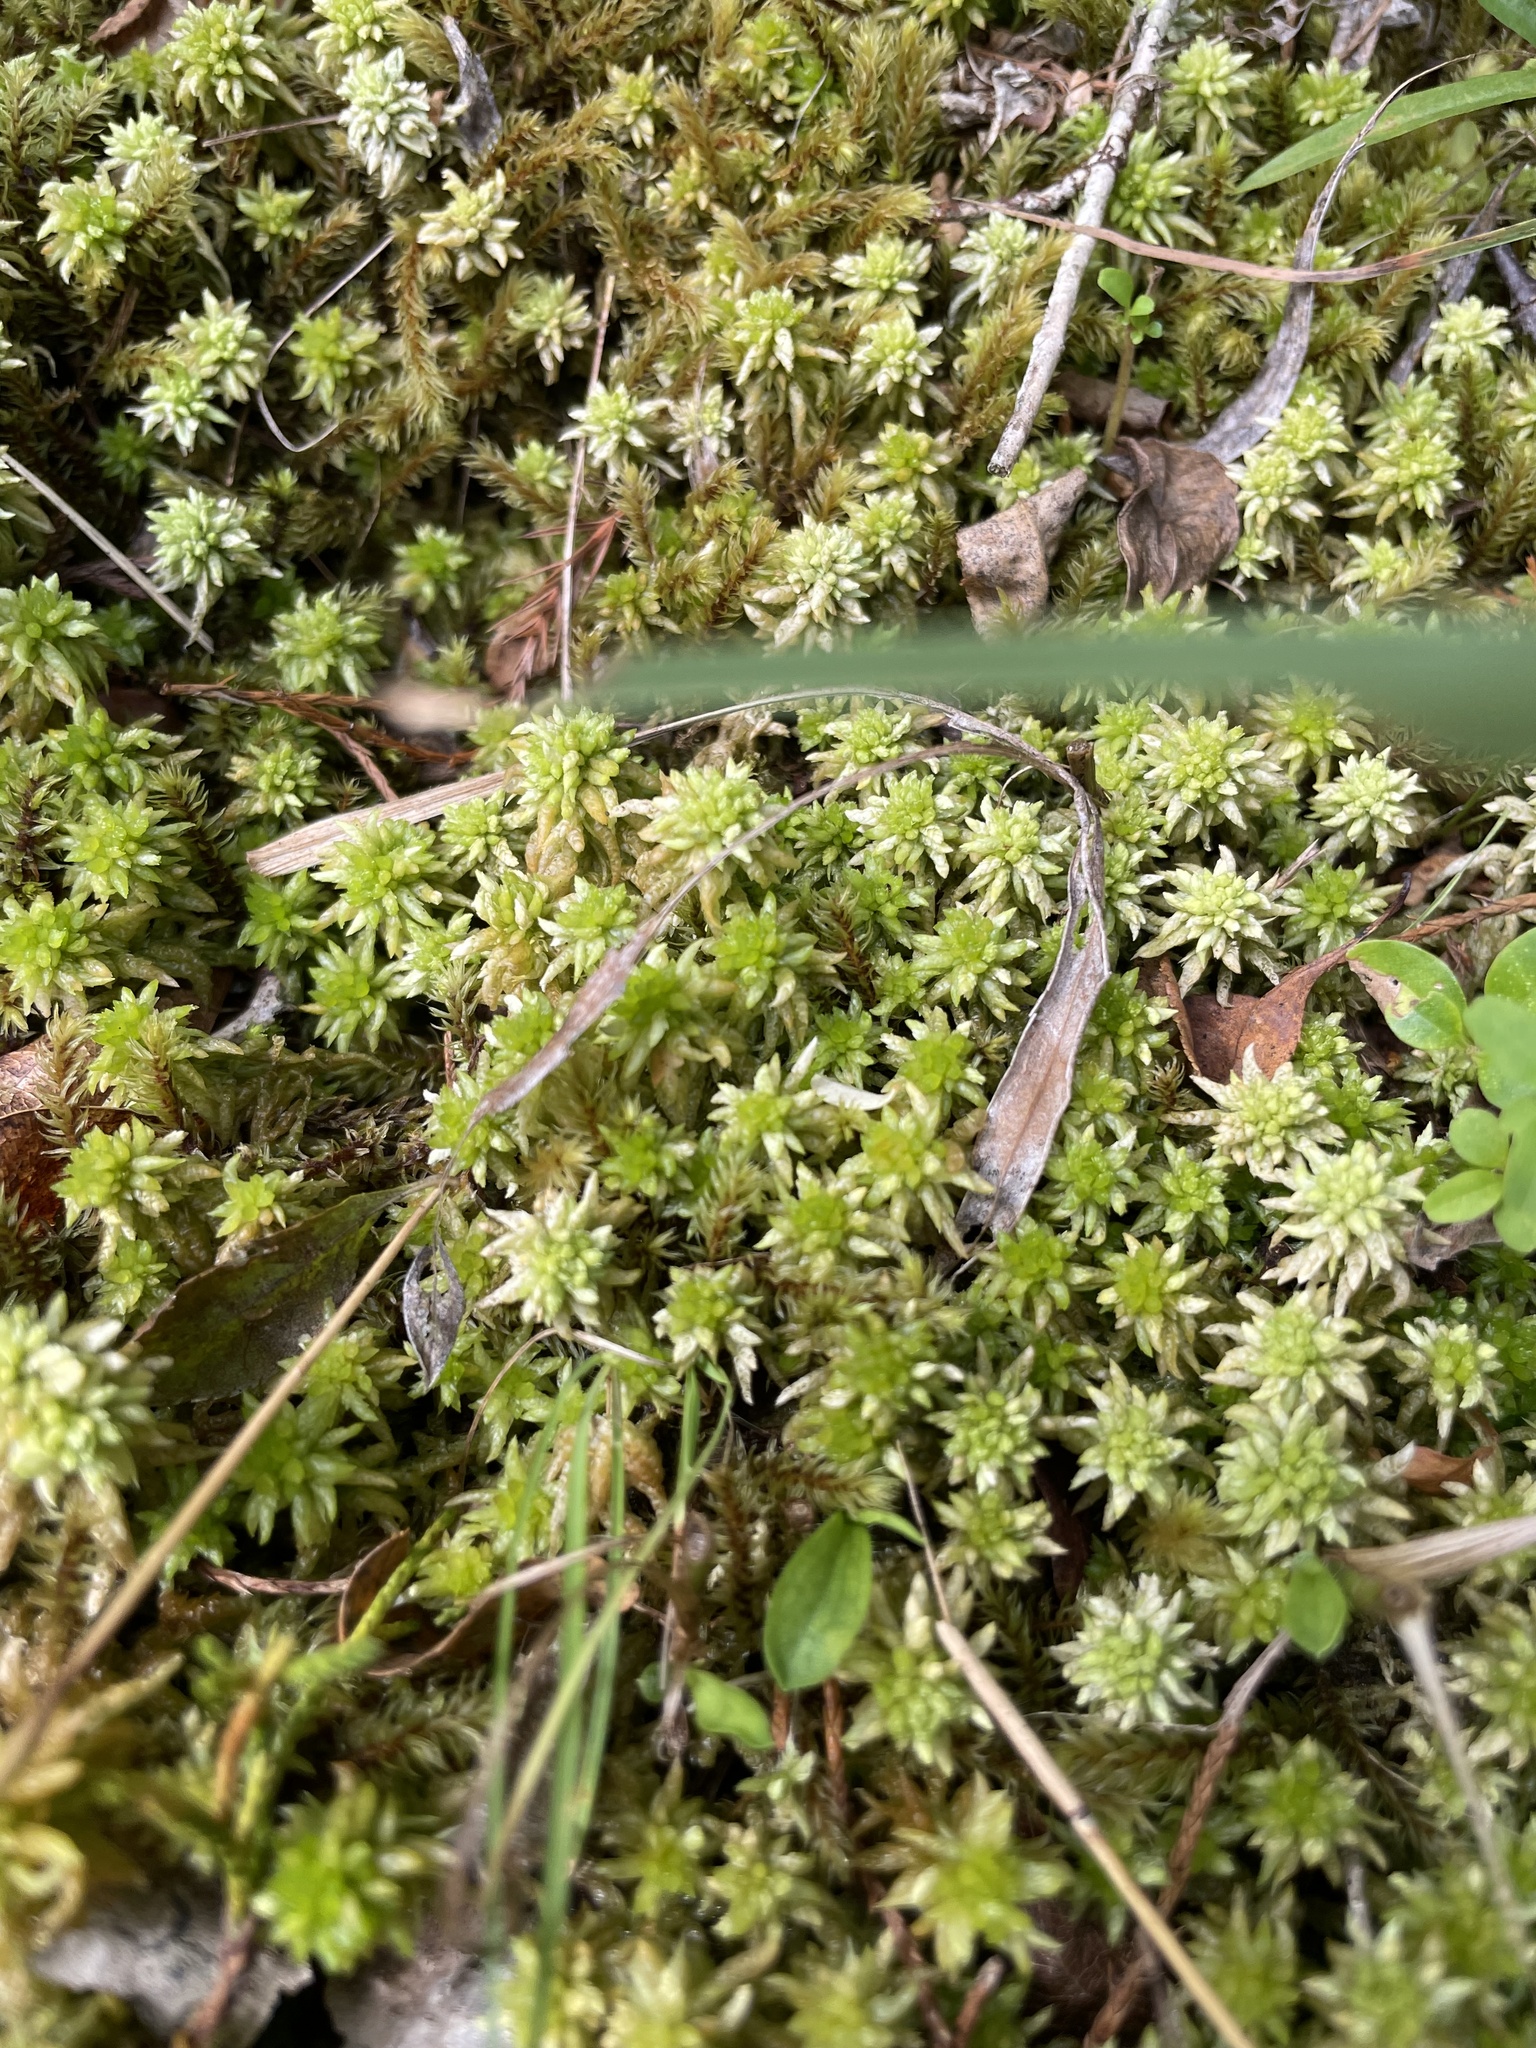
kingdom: Plantae
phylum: Bryophyta
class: Sphagnopsida
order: Sphagnales
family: Sphagnaceae
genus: Sphagnum
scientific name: Sphagnum perichaetiale
